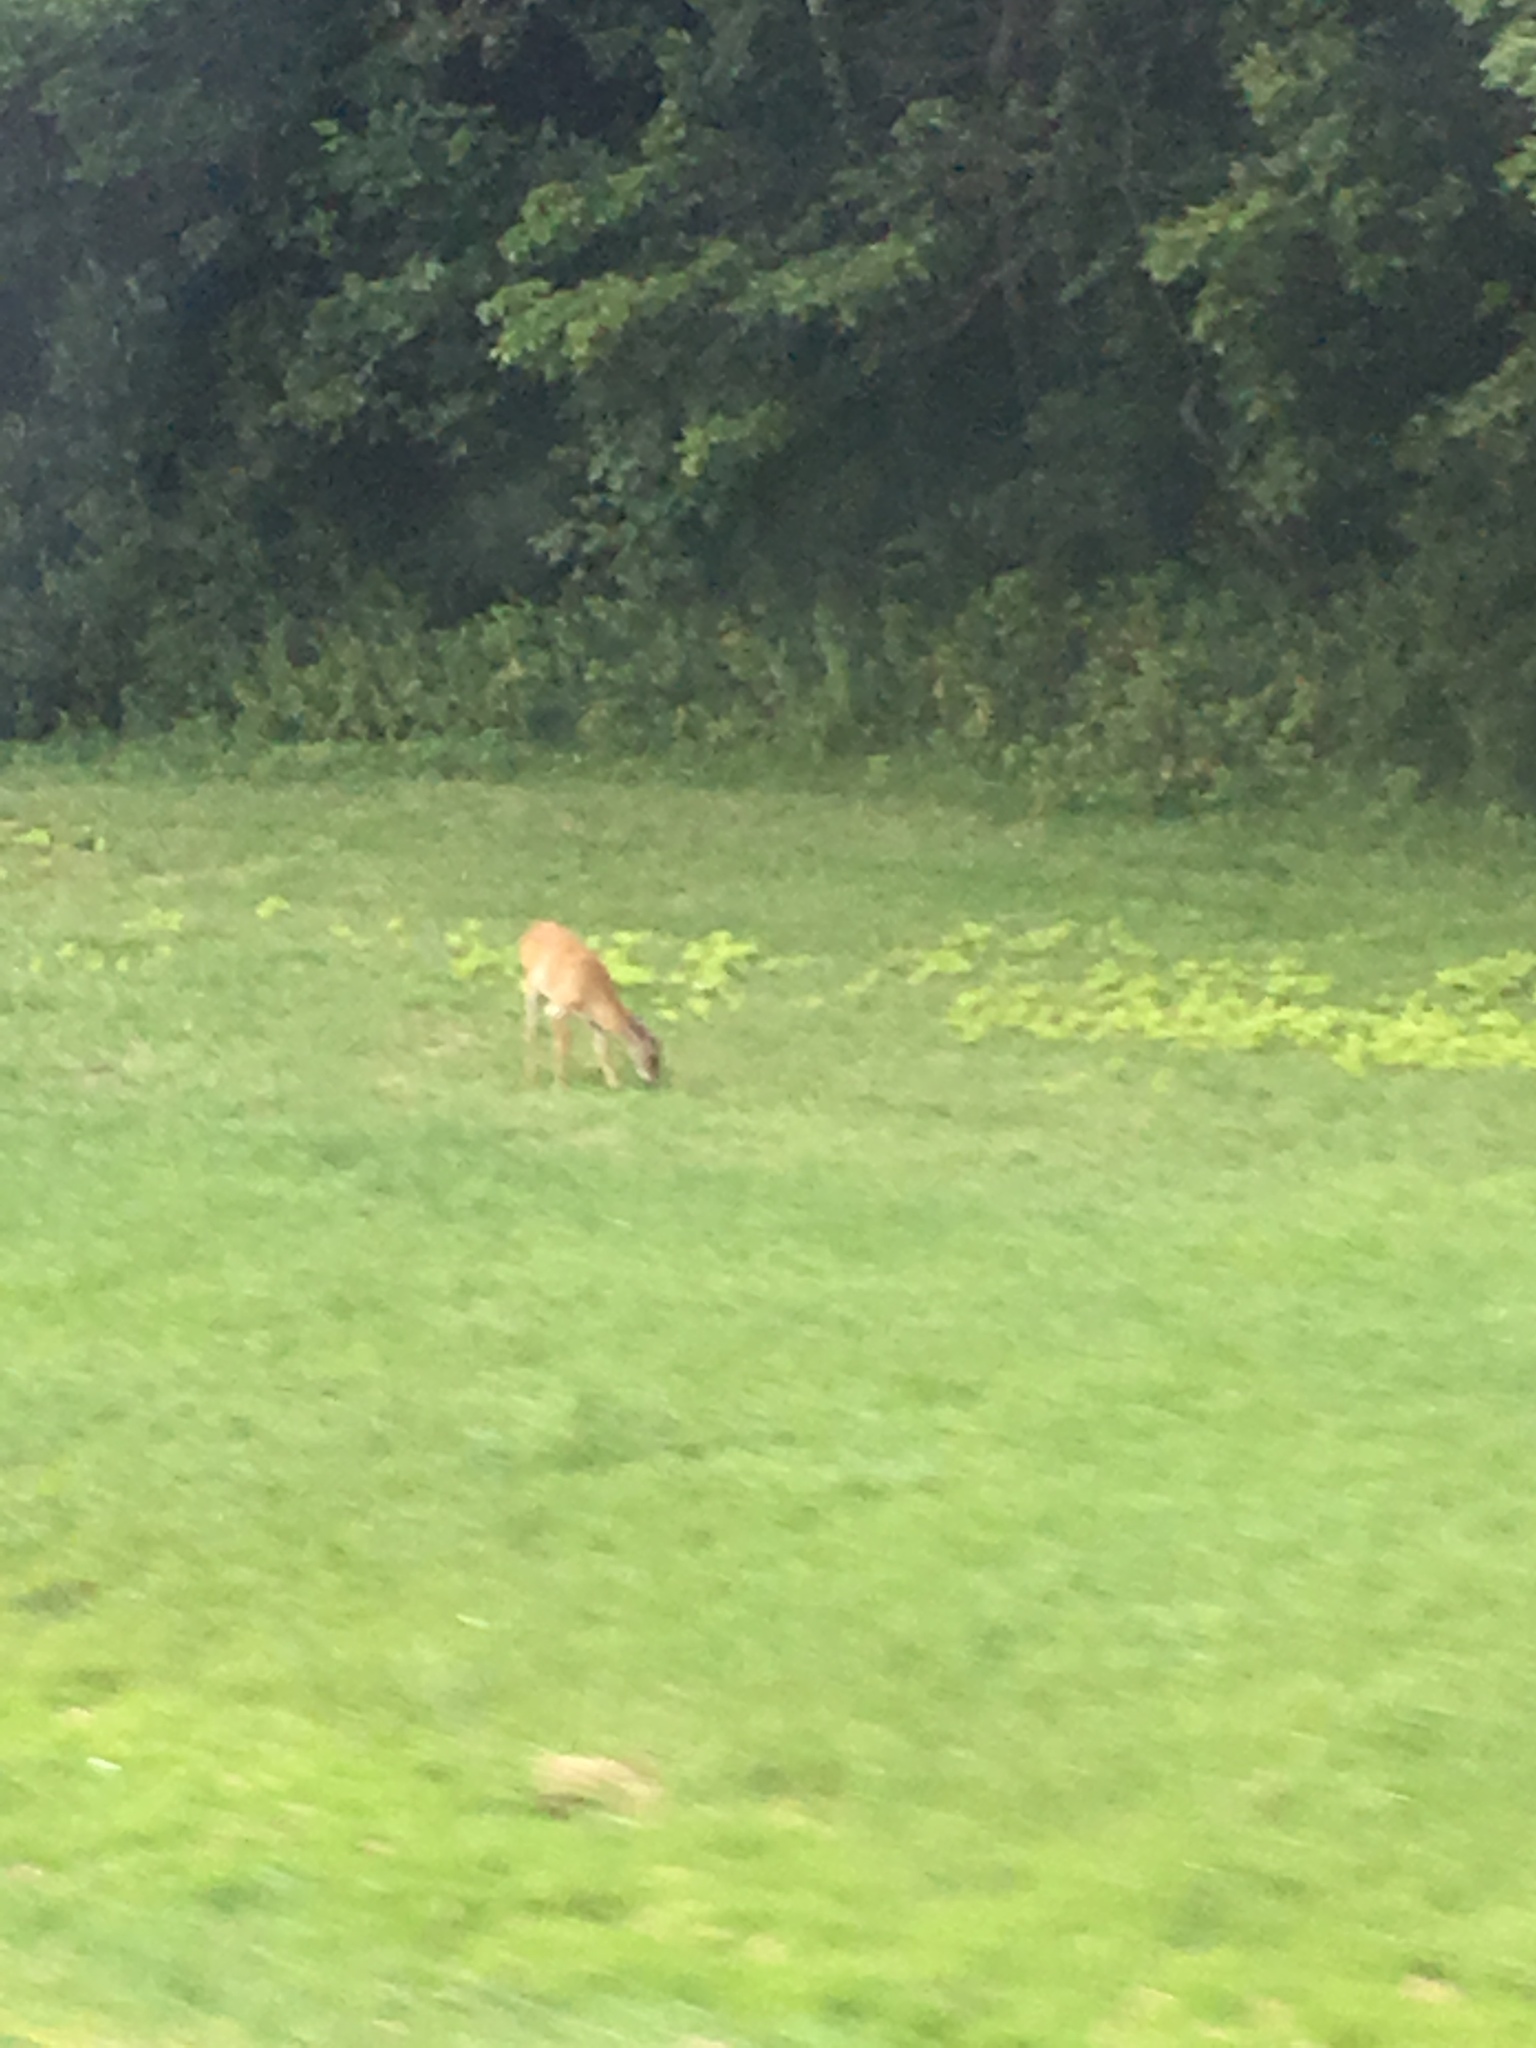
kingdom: Animalia
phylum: Chordata
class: Mammalia
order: Artiodactyla
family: Cervidae
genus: Odocoileus
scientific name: Odocoileus virginianus
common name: White-tailed deer
